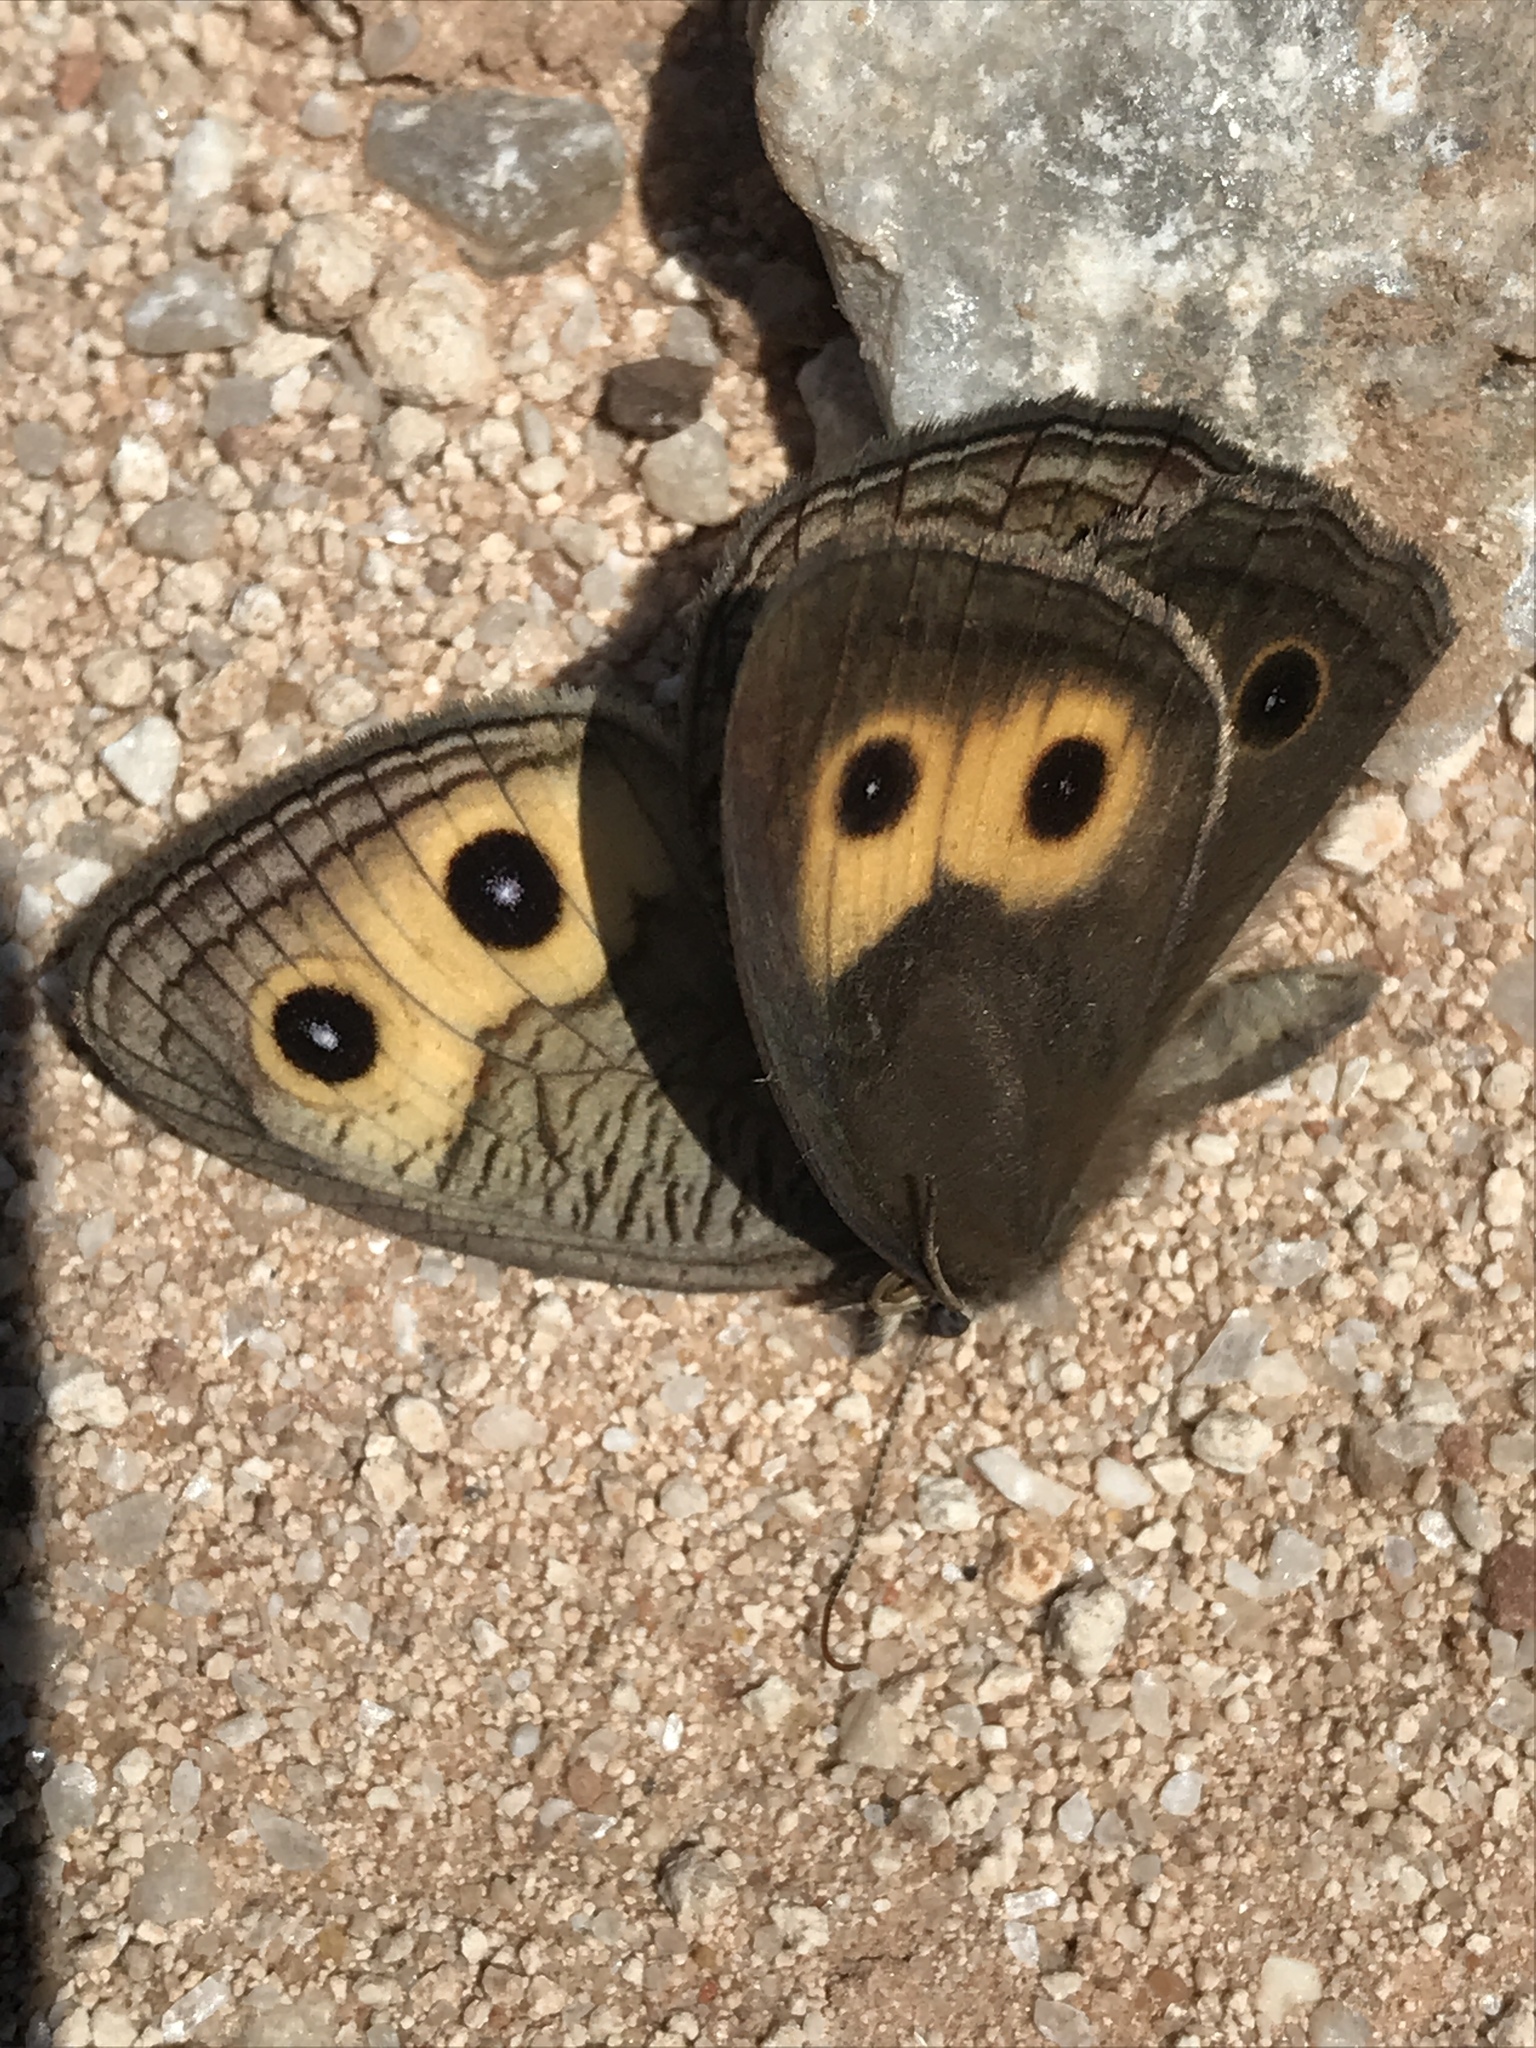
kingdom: Animalia
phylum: Arthropoda
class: Insecta
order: Lepidoptera
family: Nymphalidae
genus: Cercyonis
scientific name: Cercyonis pegala
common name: Common wood-nymph
